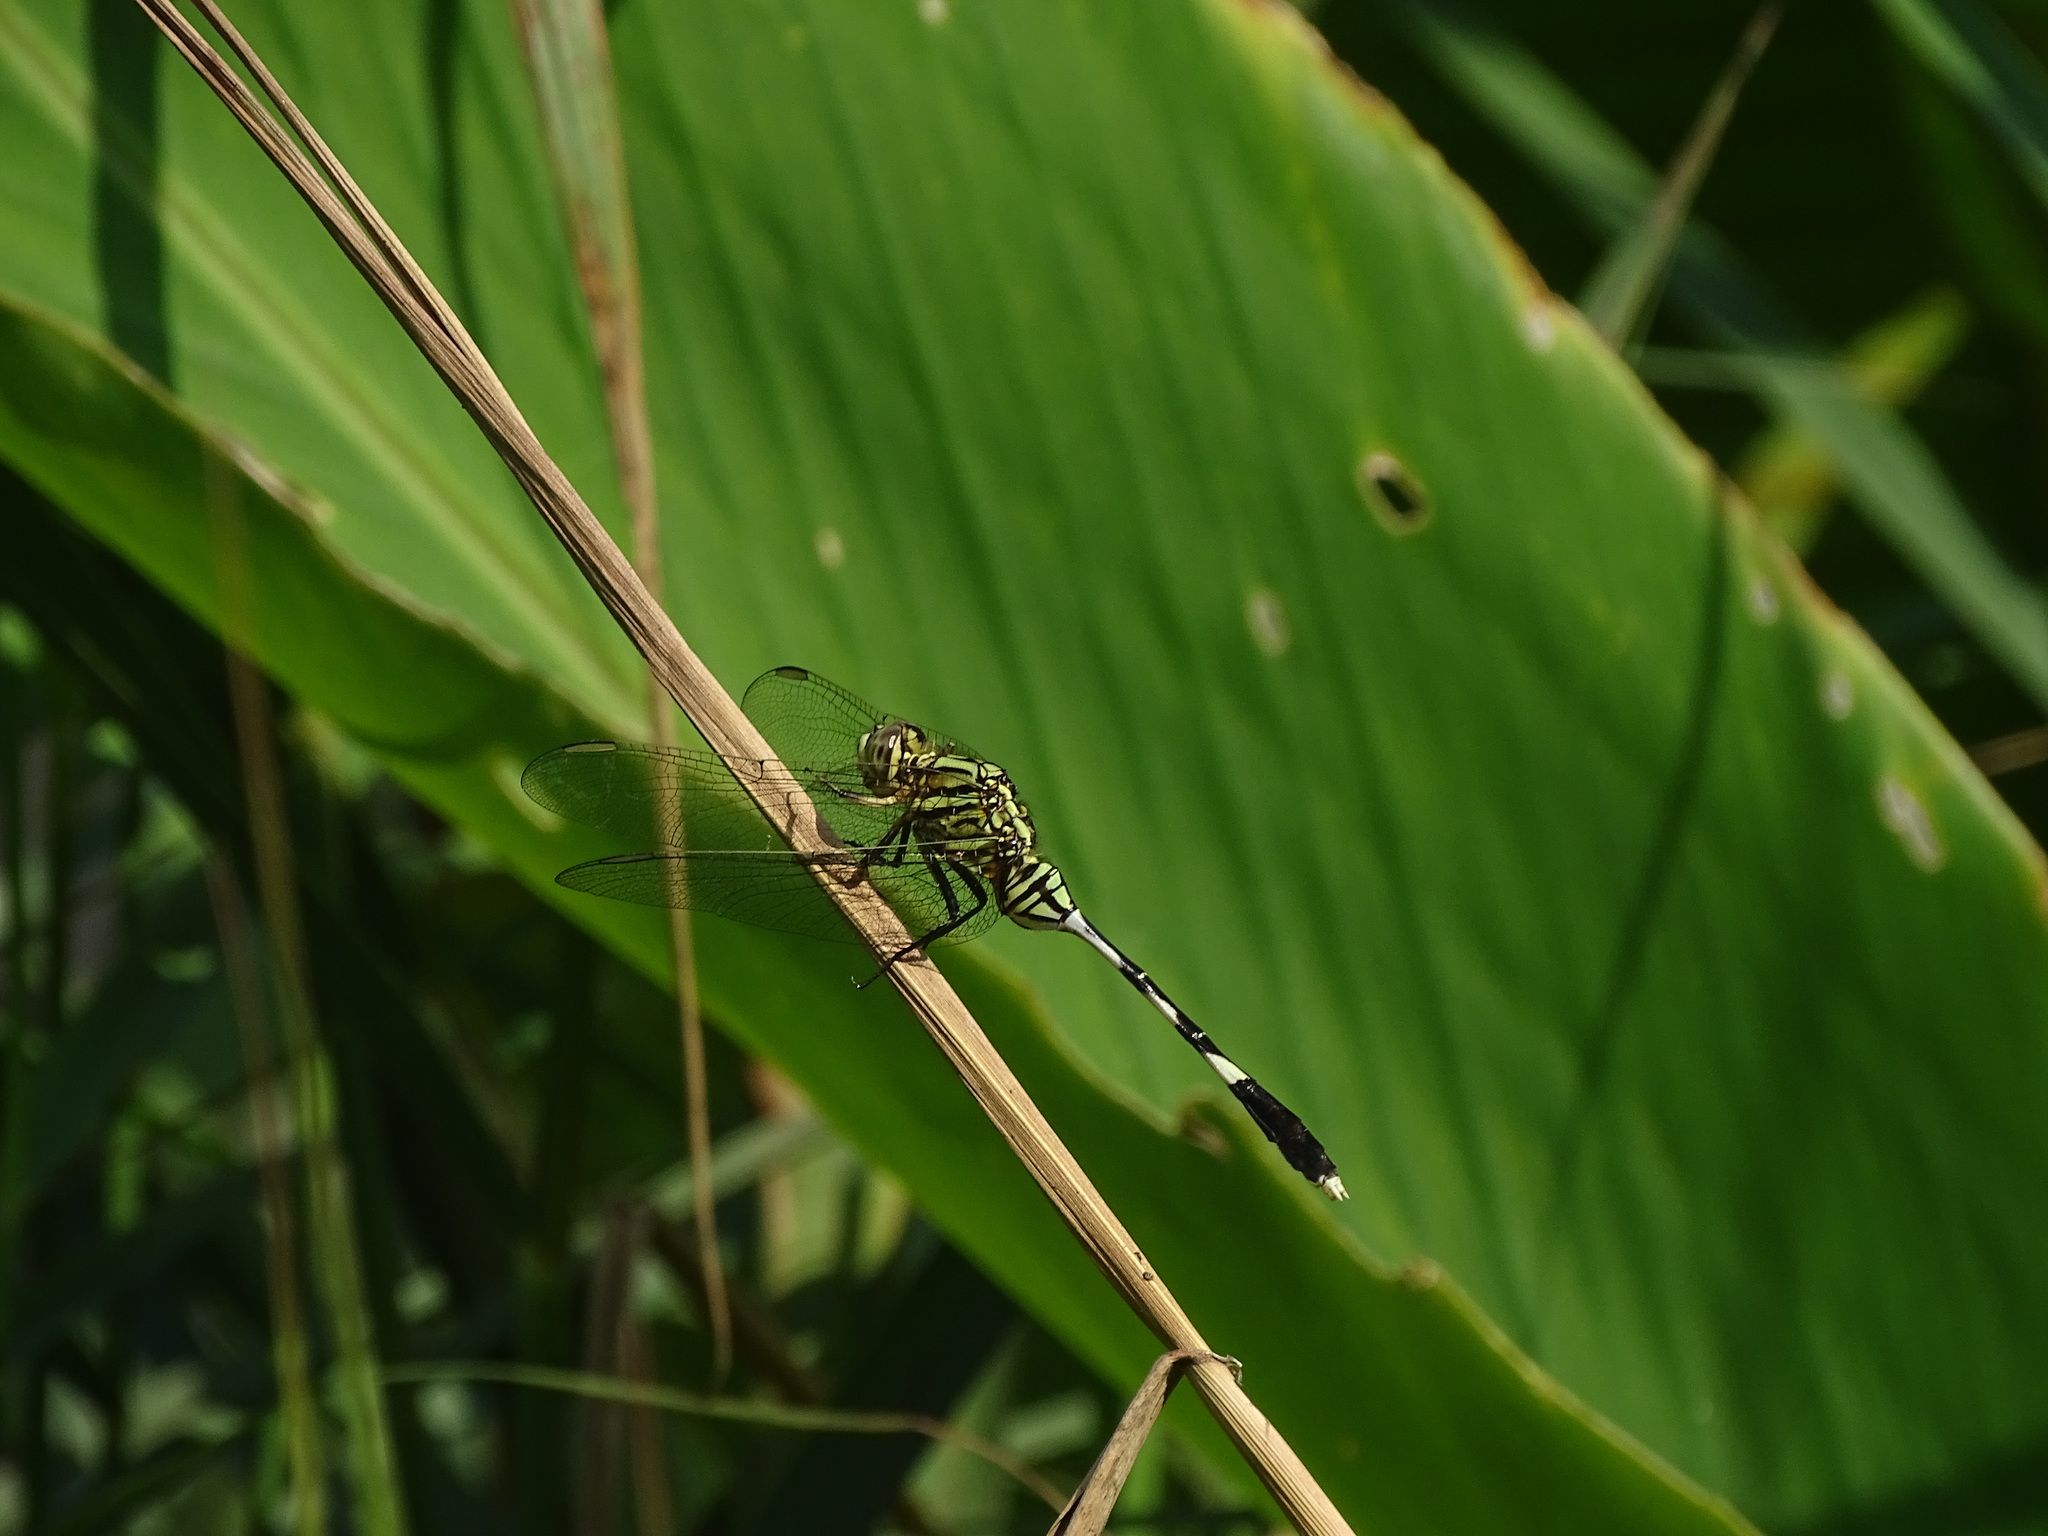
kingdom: Animalia
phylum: Arthropoda
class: Insecta
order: Odonata
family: Libellulidae
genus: Orthetrum
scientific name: Orthetrum sabina
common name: Slender skimmer
